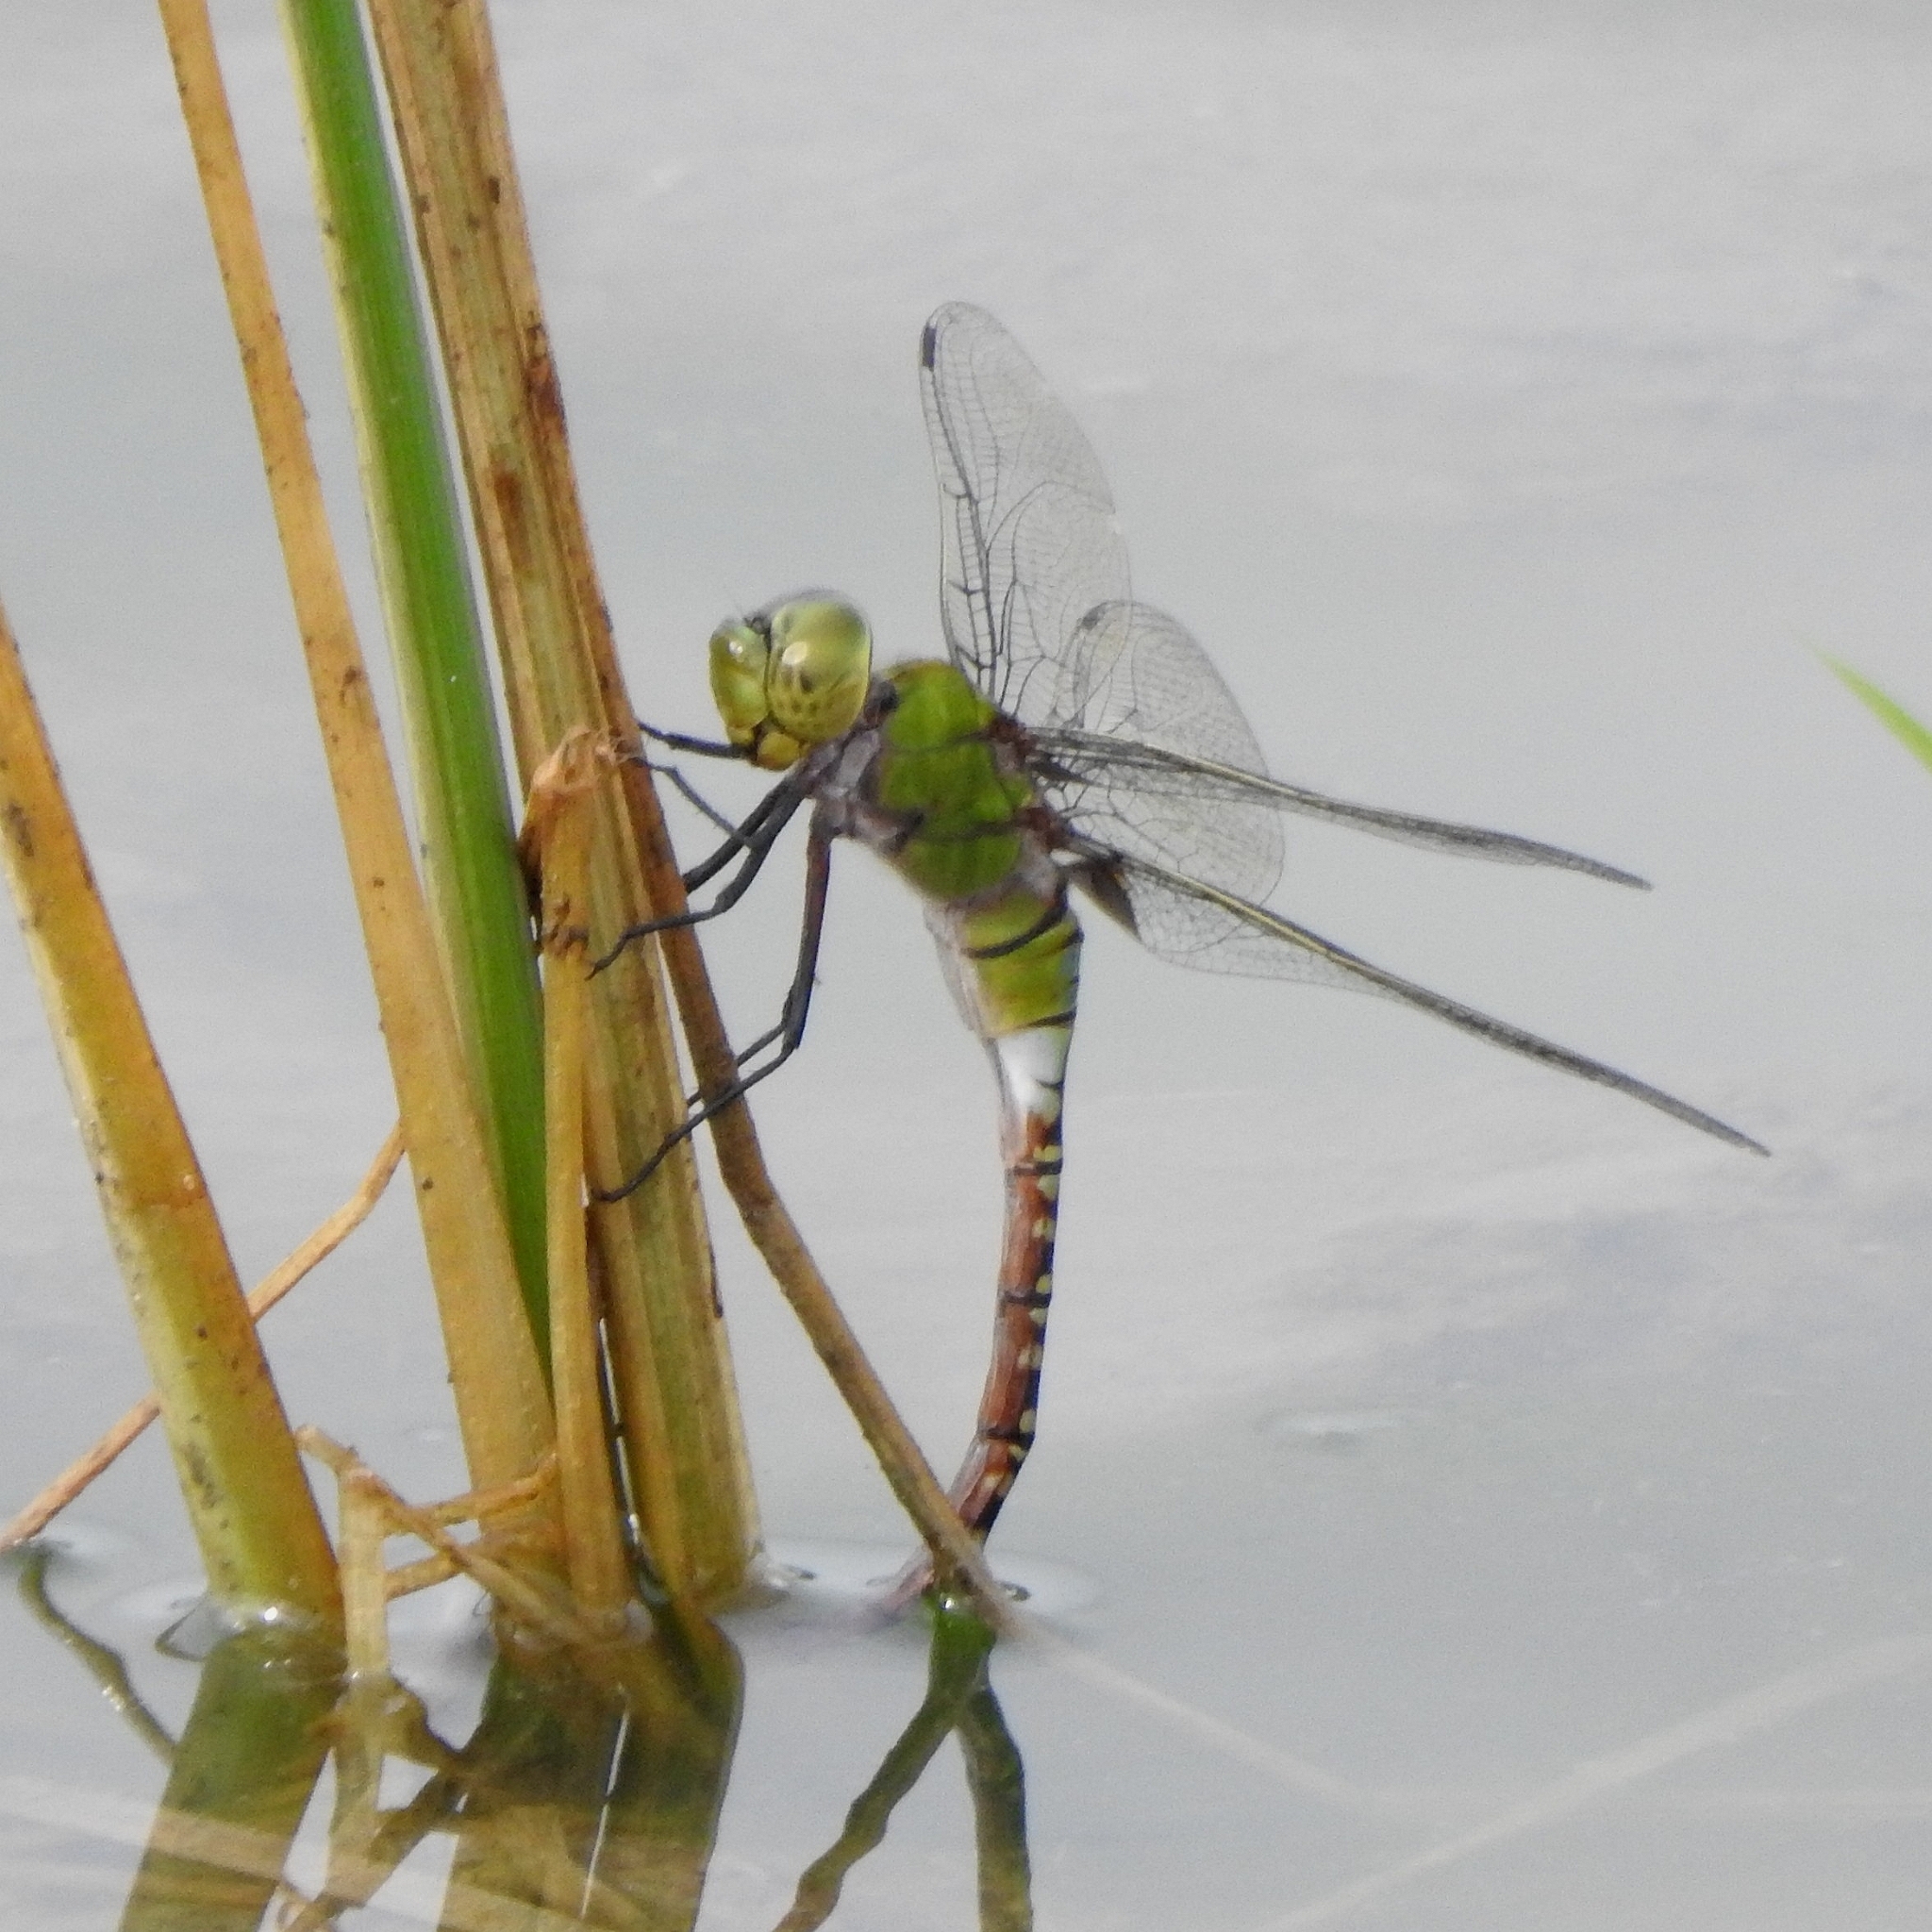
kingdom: Animalia
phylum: Arthropoda
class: Insecta
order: Odonata
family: Aeshnidae
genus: Anax
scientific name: Anax guttatus
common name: Emperor
